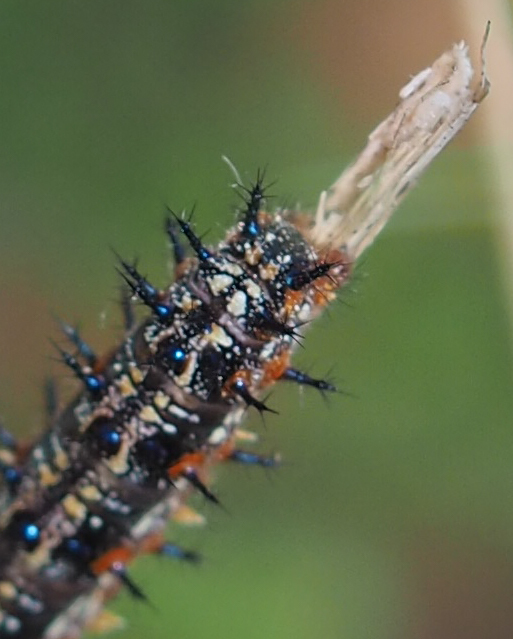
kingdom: Animalia
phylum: Arthropoda
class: Insecta
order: Lepidoptera
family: Nymphalidae
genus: Junonia
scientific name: Junonia coenia
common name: Common buckeye
